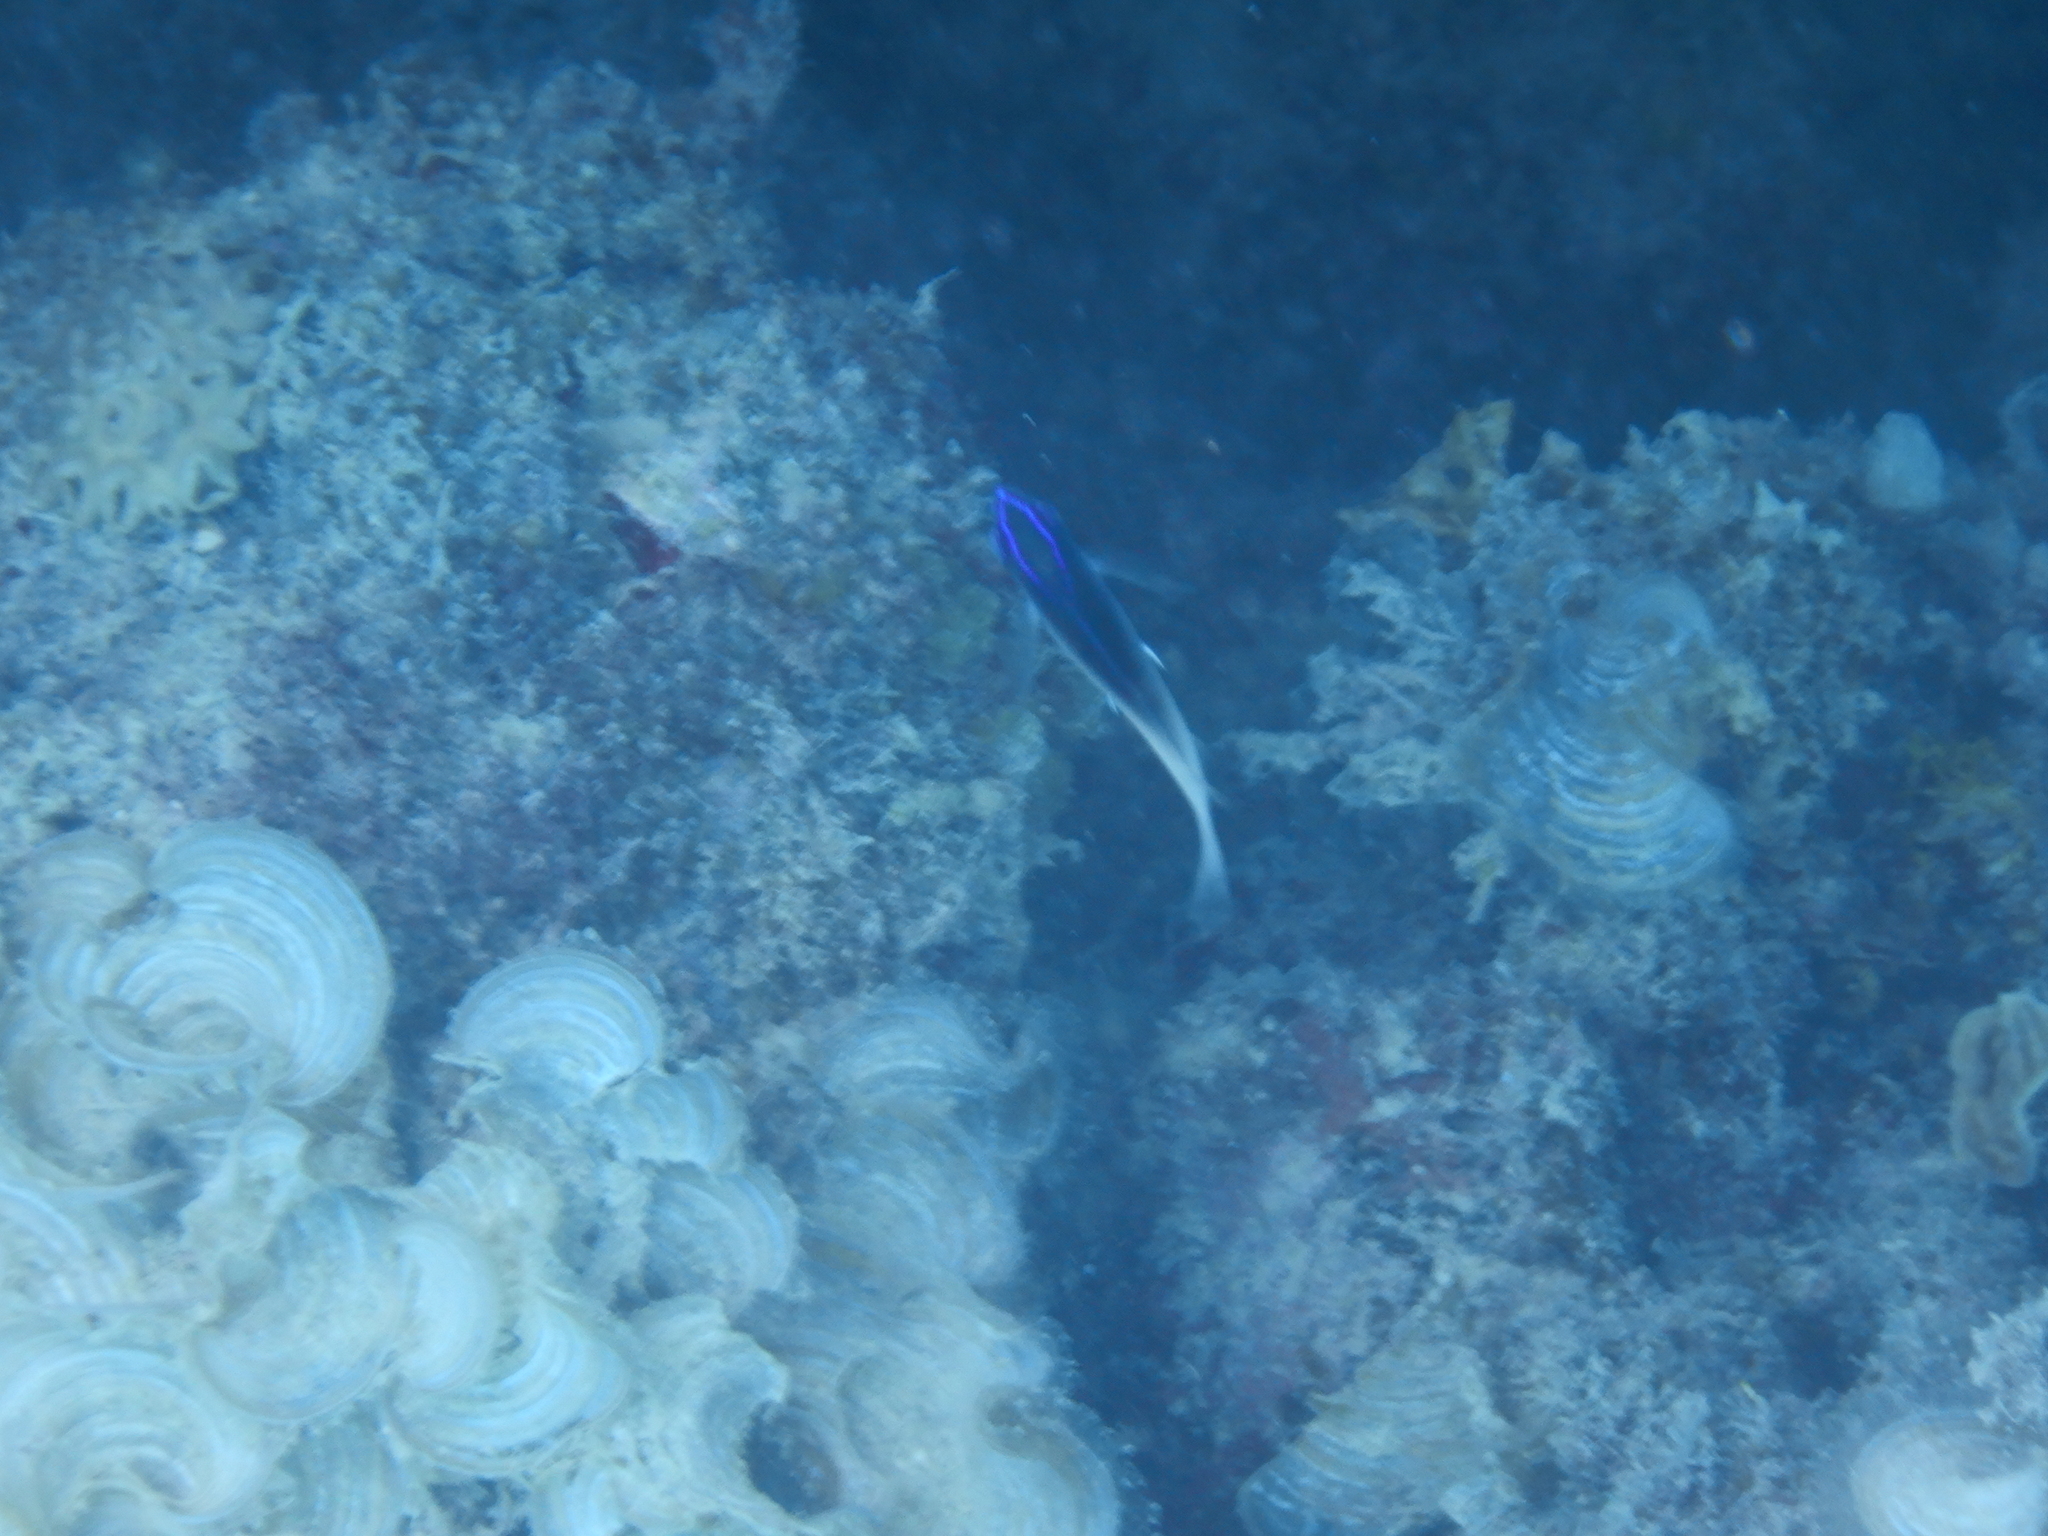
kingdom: Animalia
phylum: Chordata
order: Perciformes
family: Pomacentridae
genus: Chrysiptera
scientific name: Chrysiptera rollandi
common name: Rolland's demoiselle
